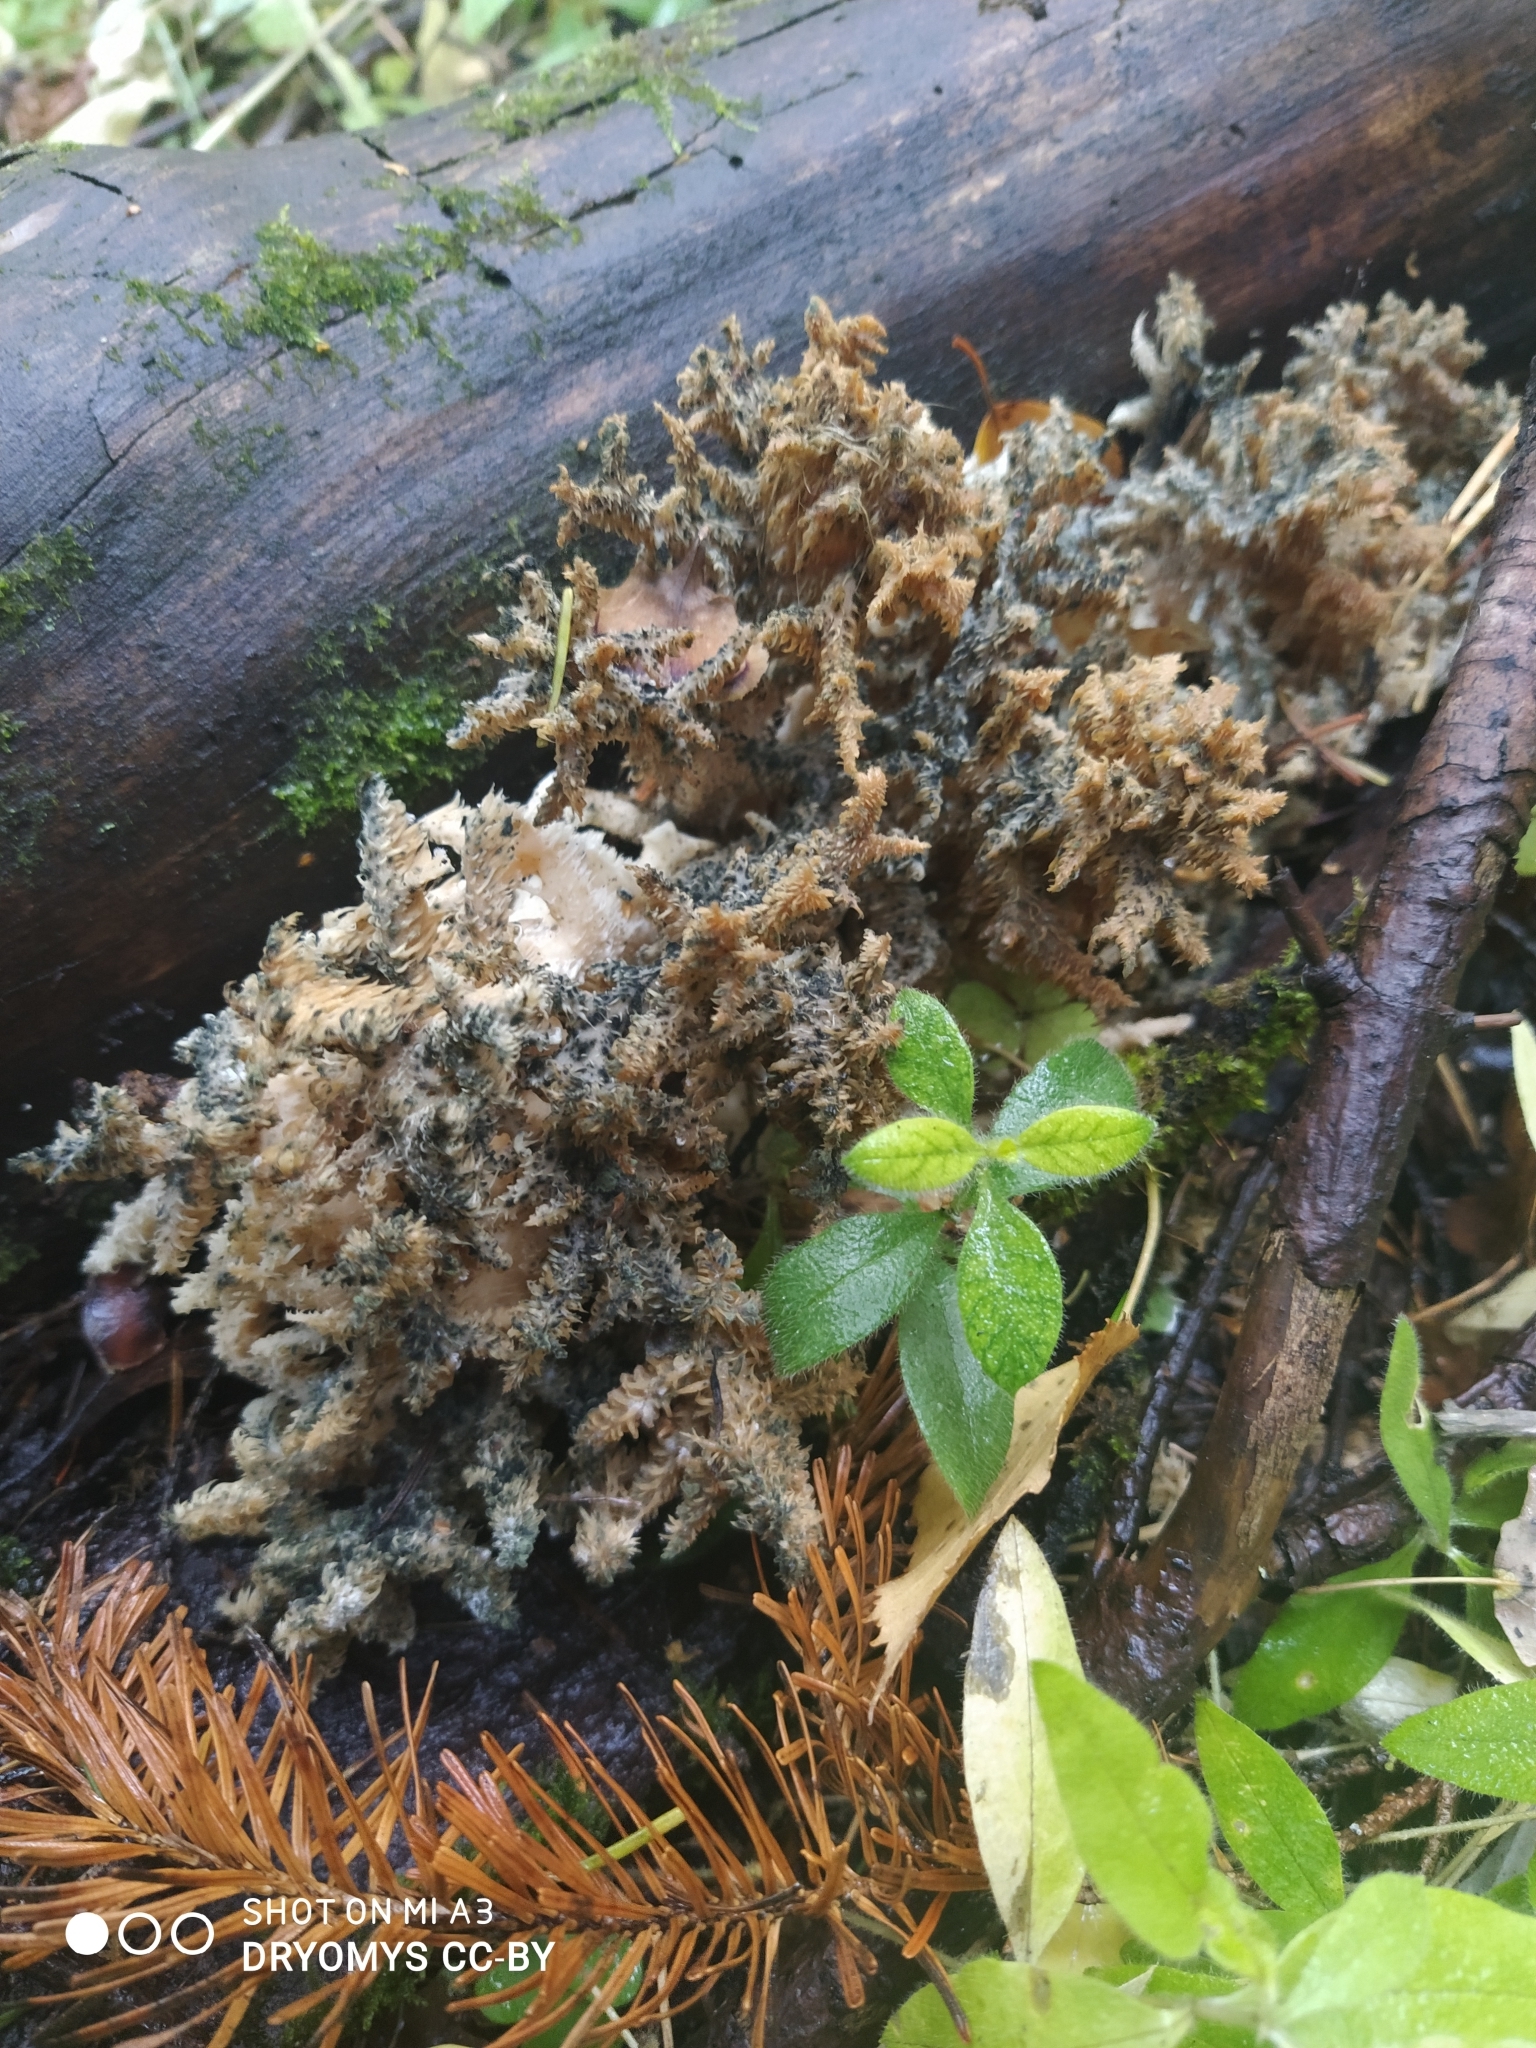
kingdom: Fungi
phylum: Basidiomycota
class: Agaricomycetes
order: Russulales
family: Hericiaceae
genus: Hericium
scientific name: Hericium coralloides
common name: Coral tooth
